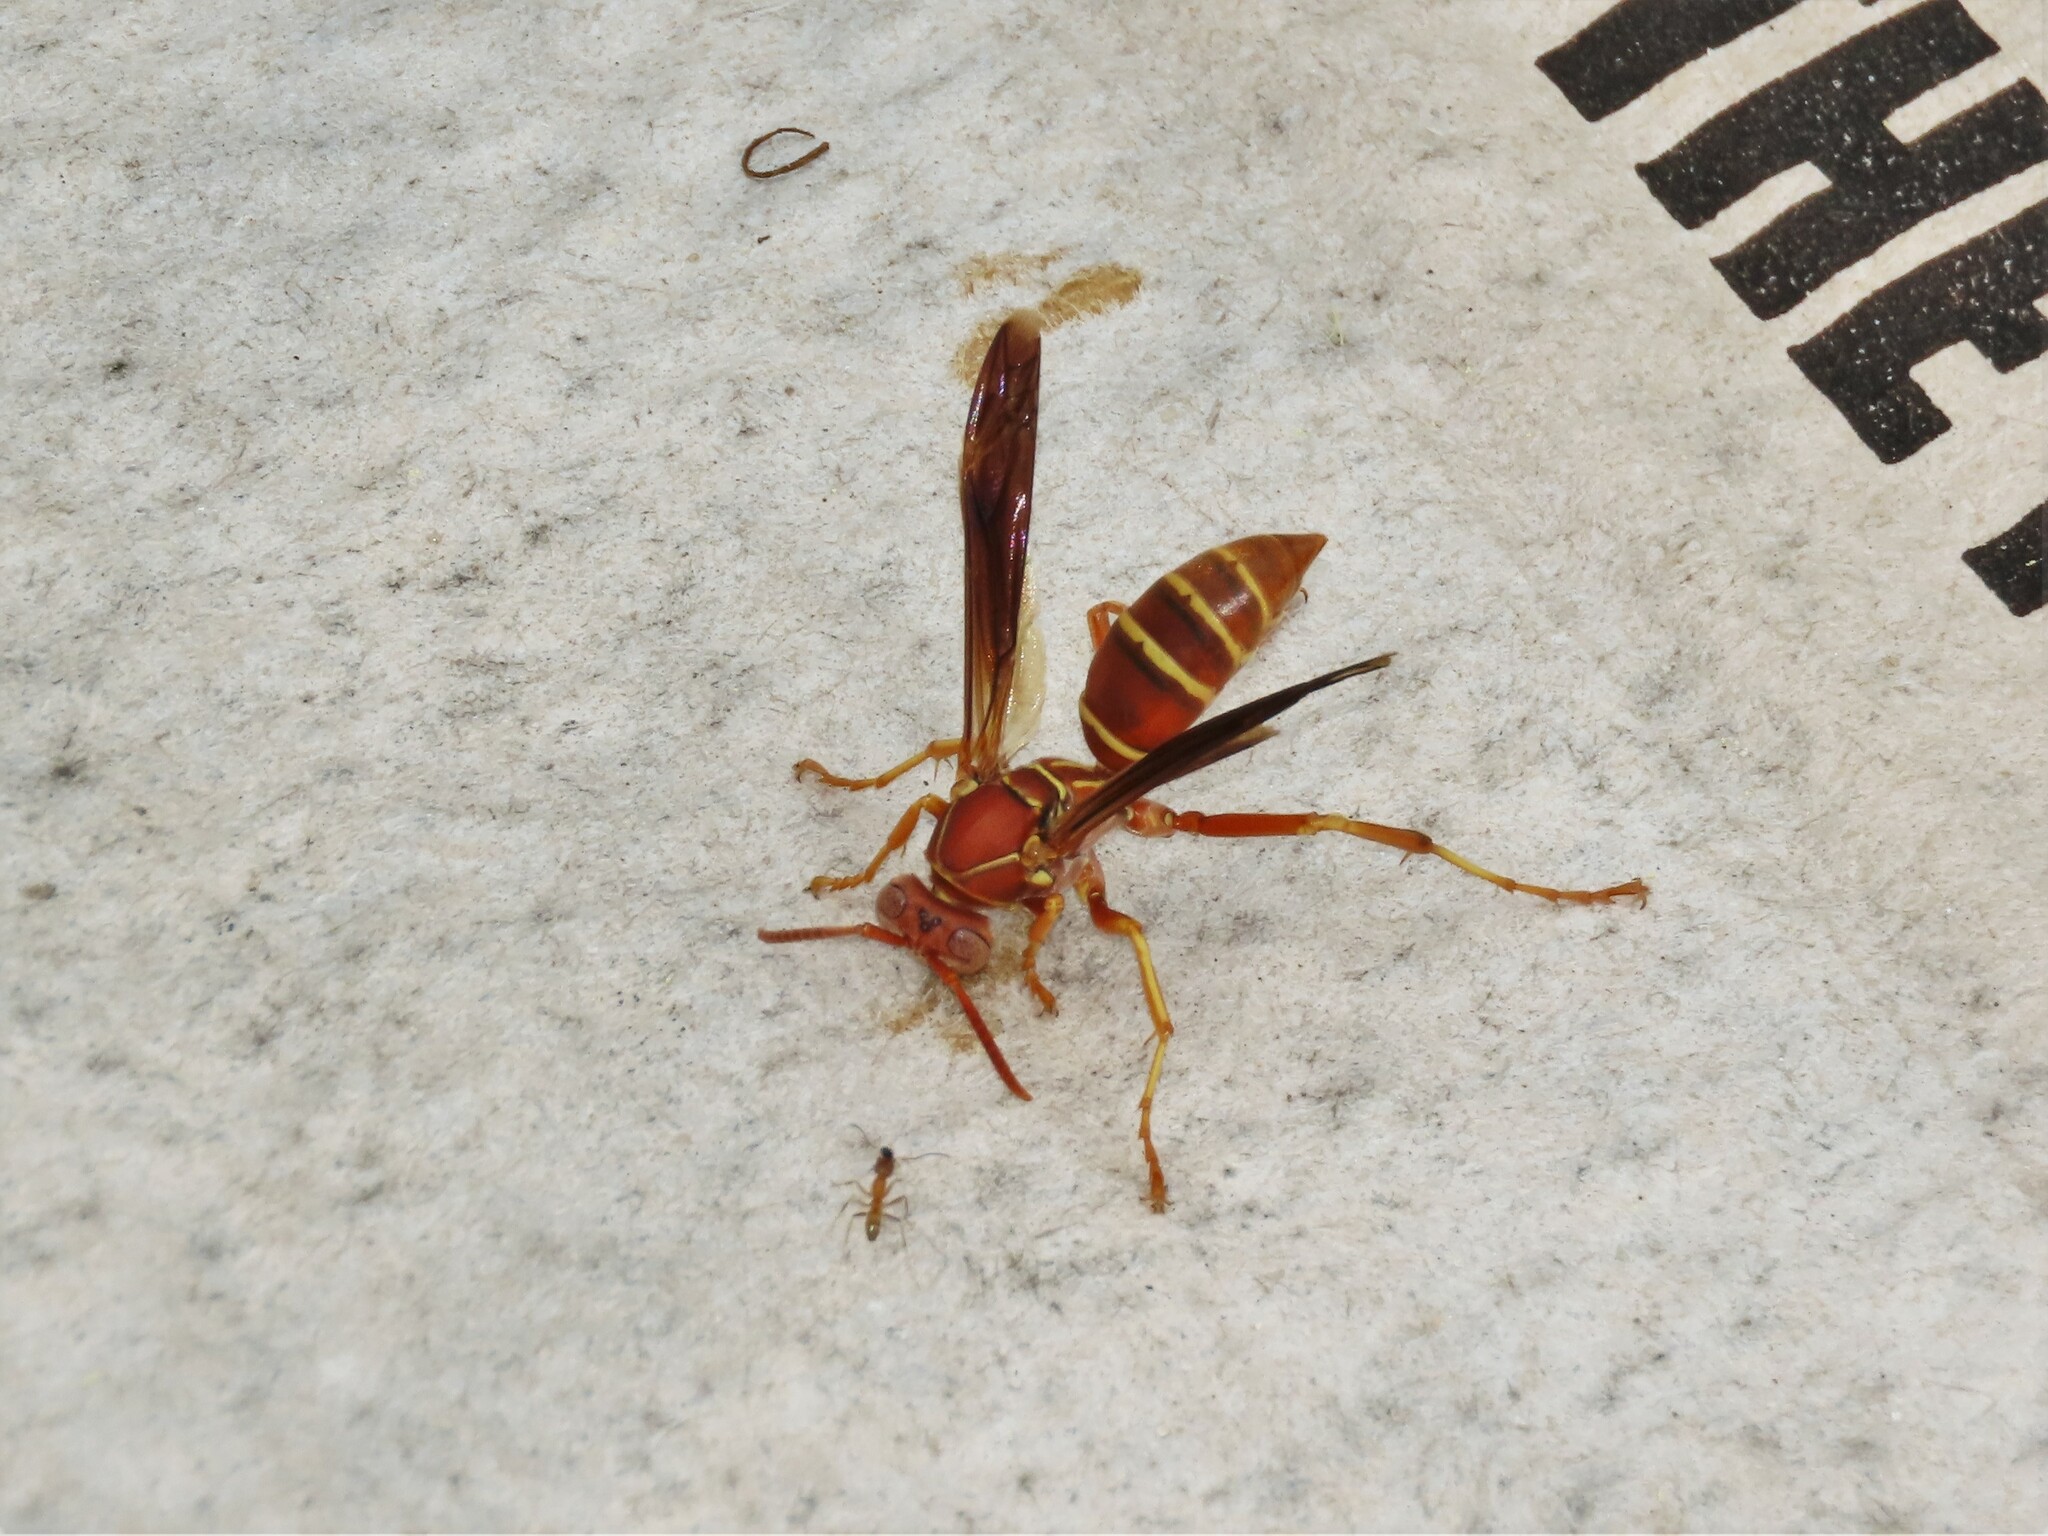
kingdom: Animalia
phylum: Arthropoda
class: Insecta
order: Hymenoptera
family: Eumenidae
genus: Polistes
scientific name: Polistes bellicosus
